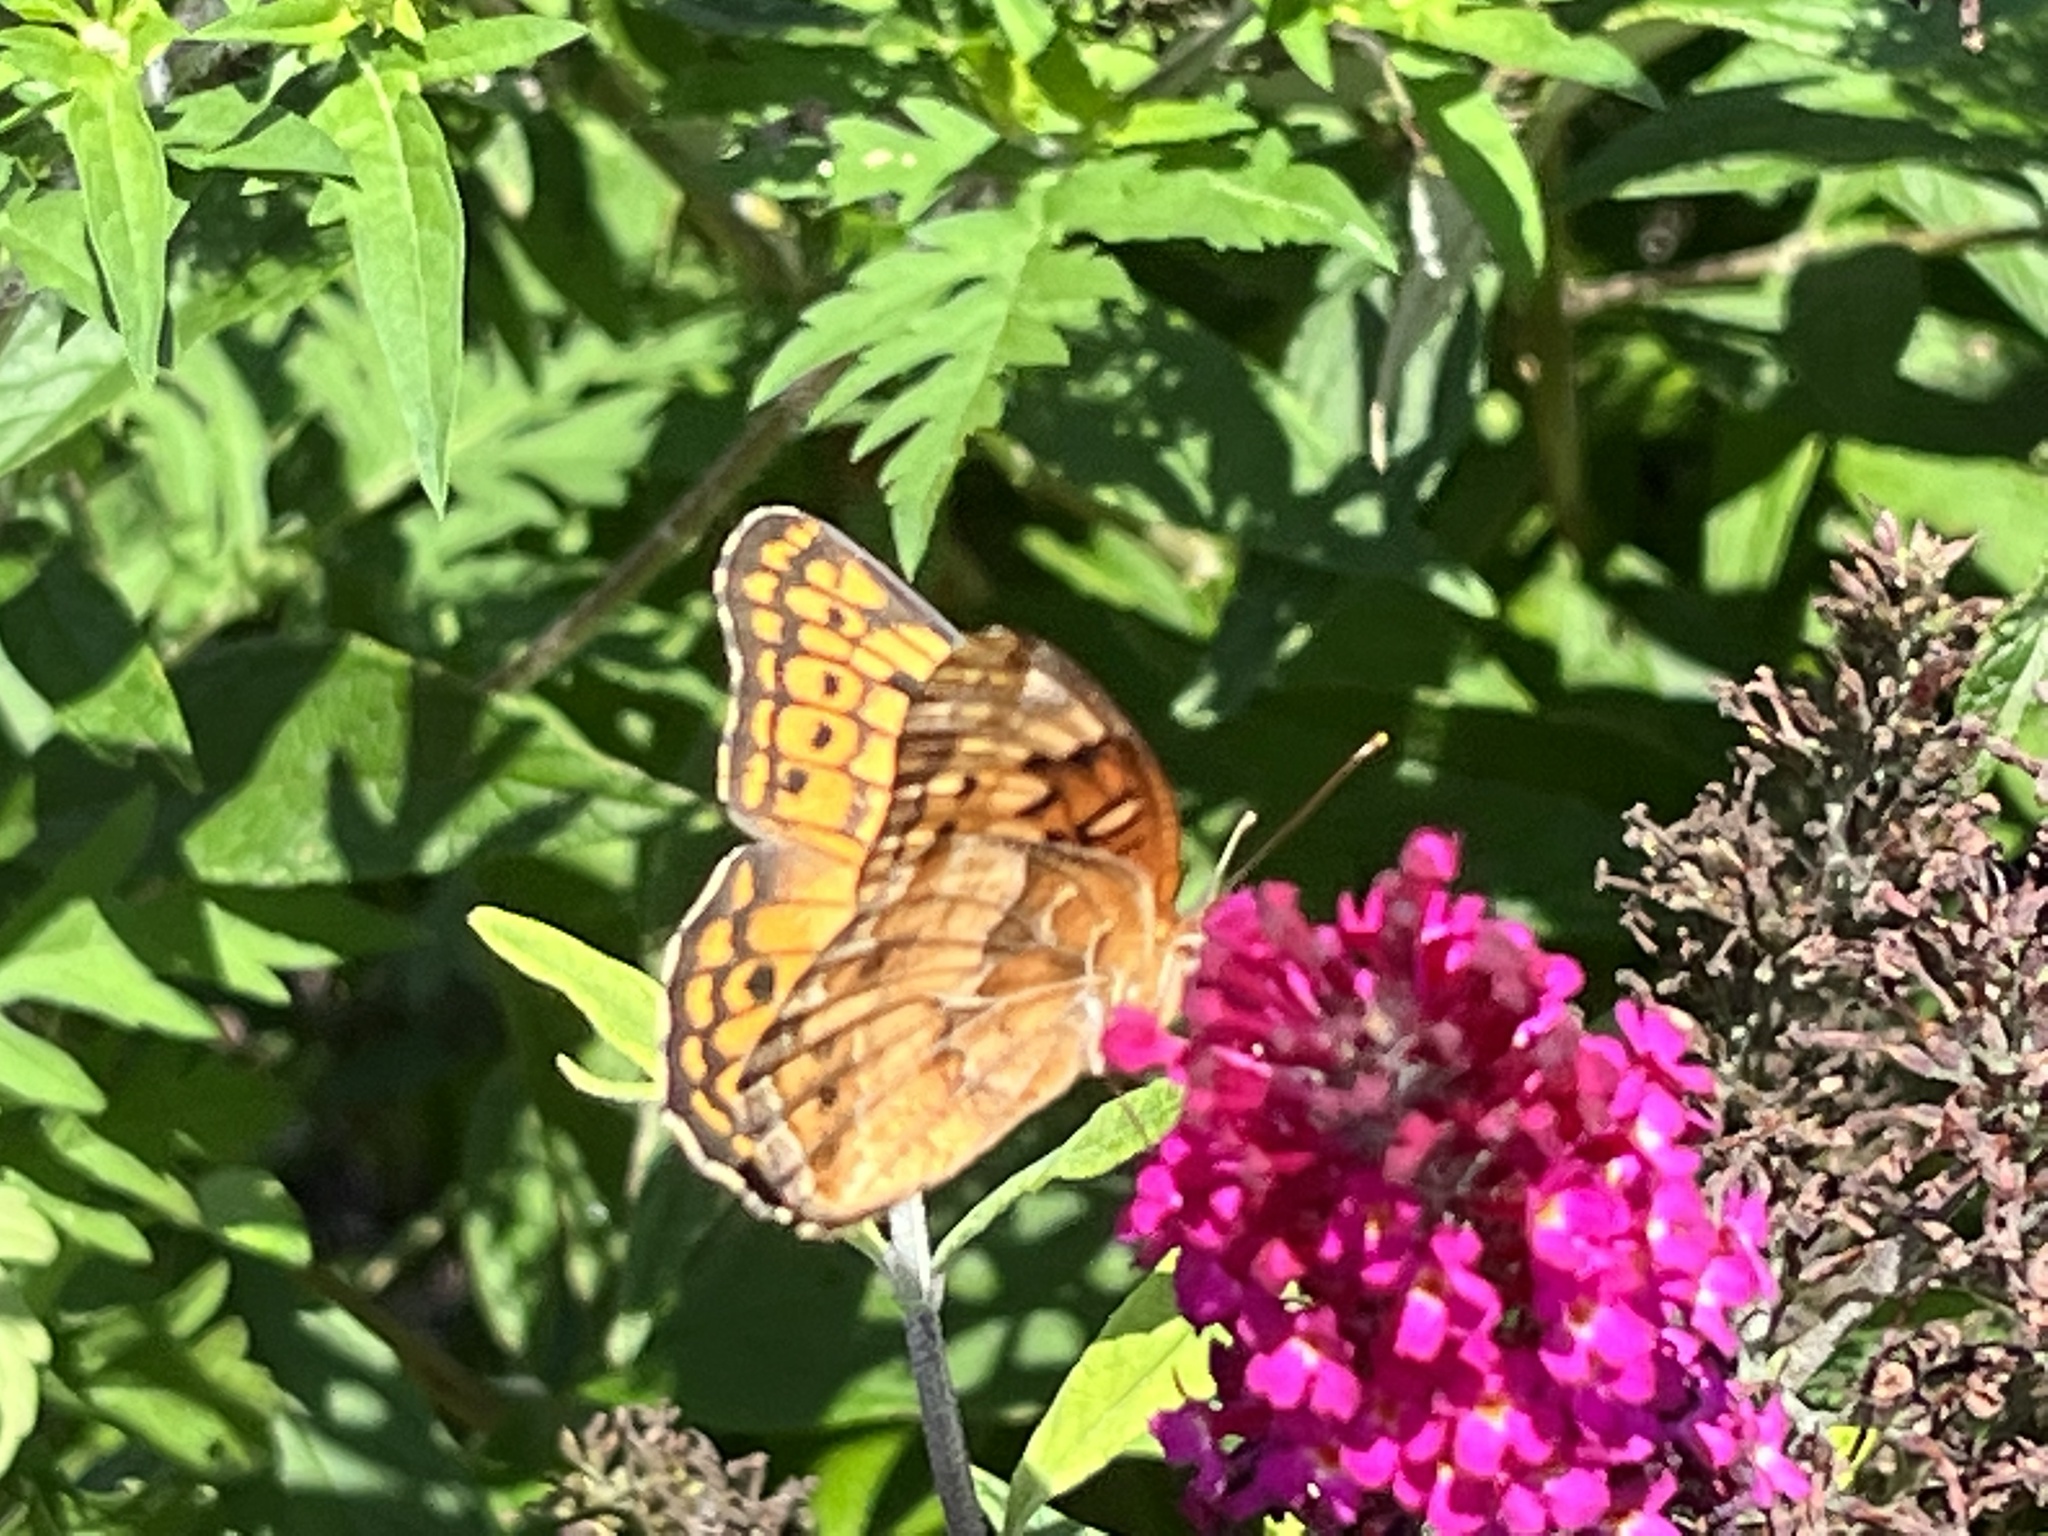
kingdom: Animalia
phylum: Arthropoda
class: Insecta
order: Lepidoptera
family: Nymphalidae
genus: Euptoieta
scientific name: Euptoieta claudia
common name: Variegated fritillary
